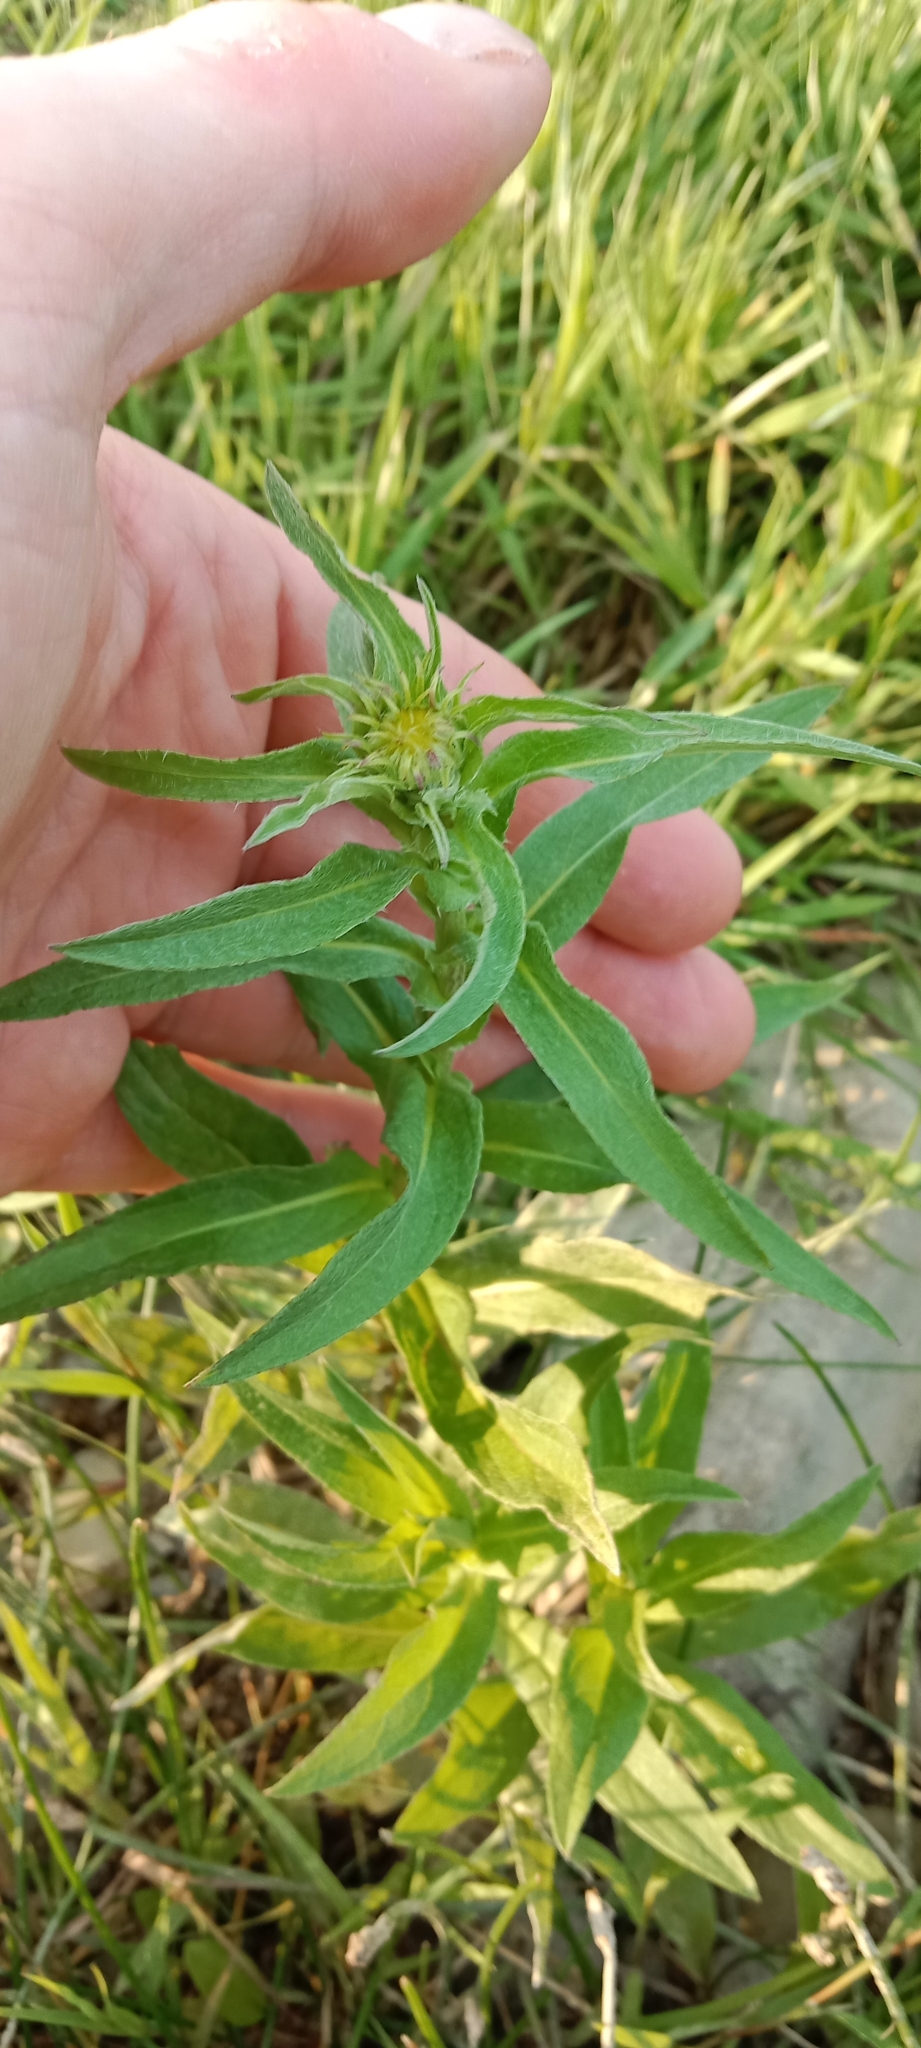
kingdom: Plantae
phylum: Tracheophyta
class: Magnoliopsida
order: Asterales
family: Asteraceae
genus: Pentanema
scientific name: Pentanema britannicum
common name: British elecampane
